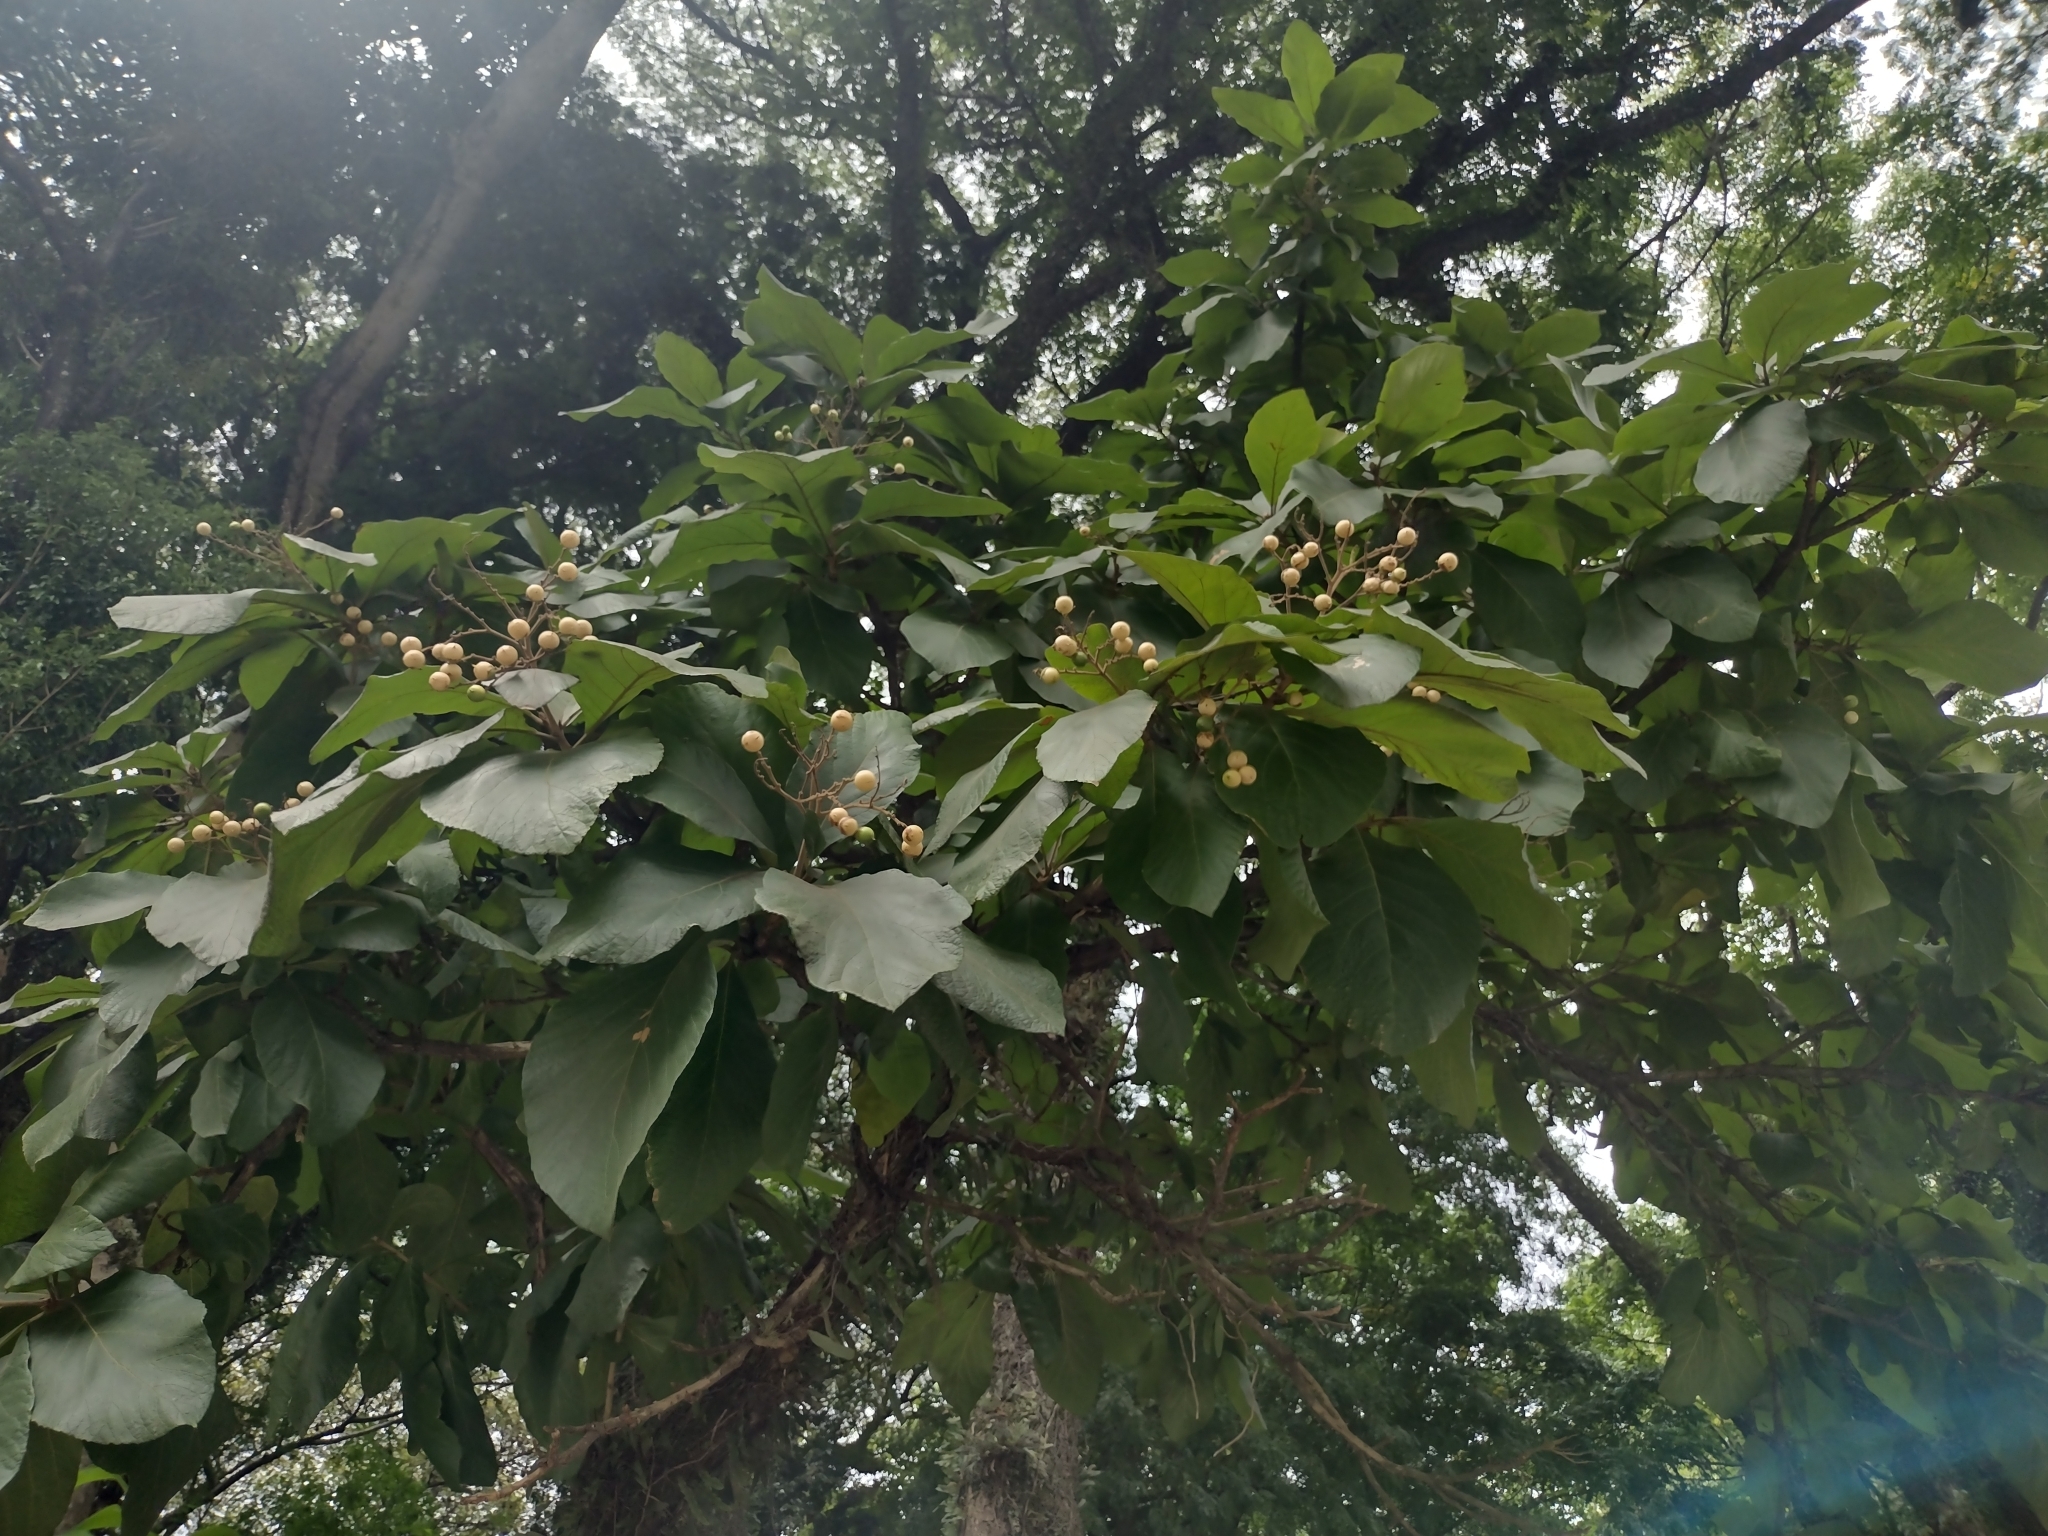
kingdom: Plantae
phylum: Tracheophyta
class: Magnoliopsida
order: Boraginales
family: Cordiaceae
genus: Cordia
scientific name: Cordia superba
